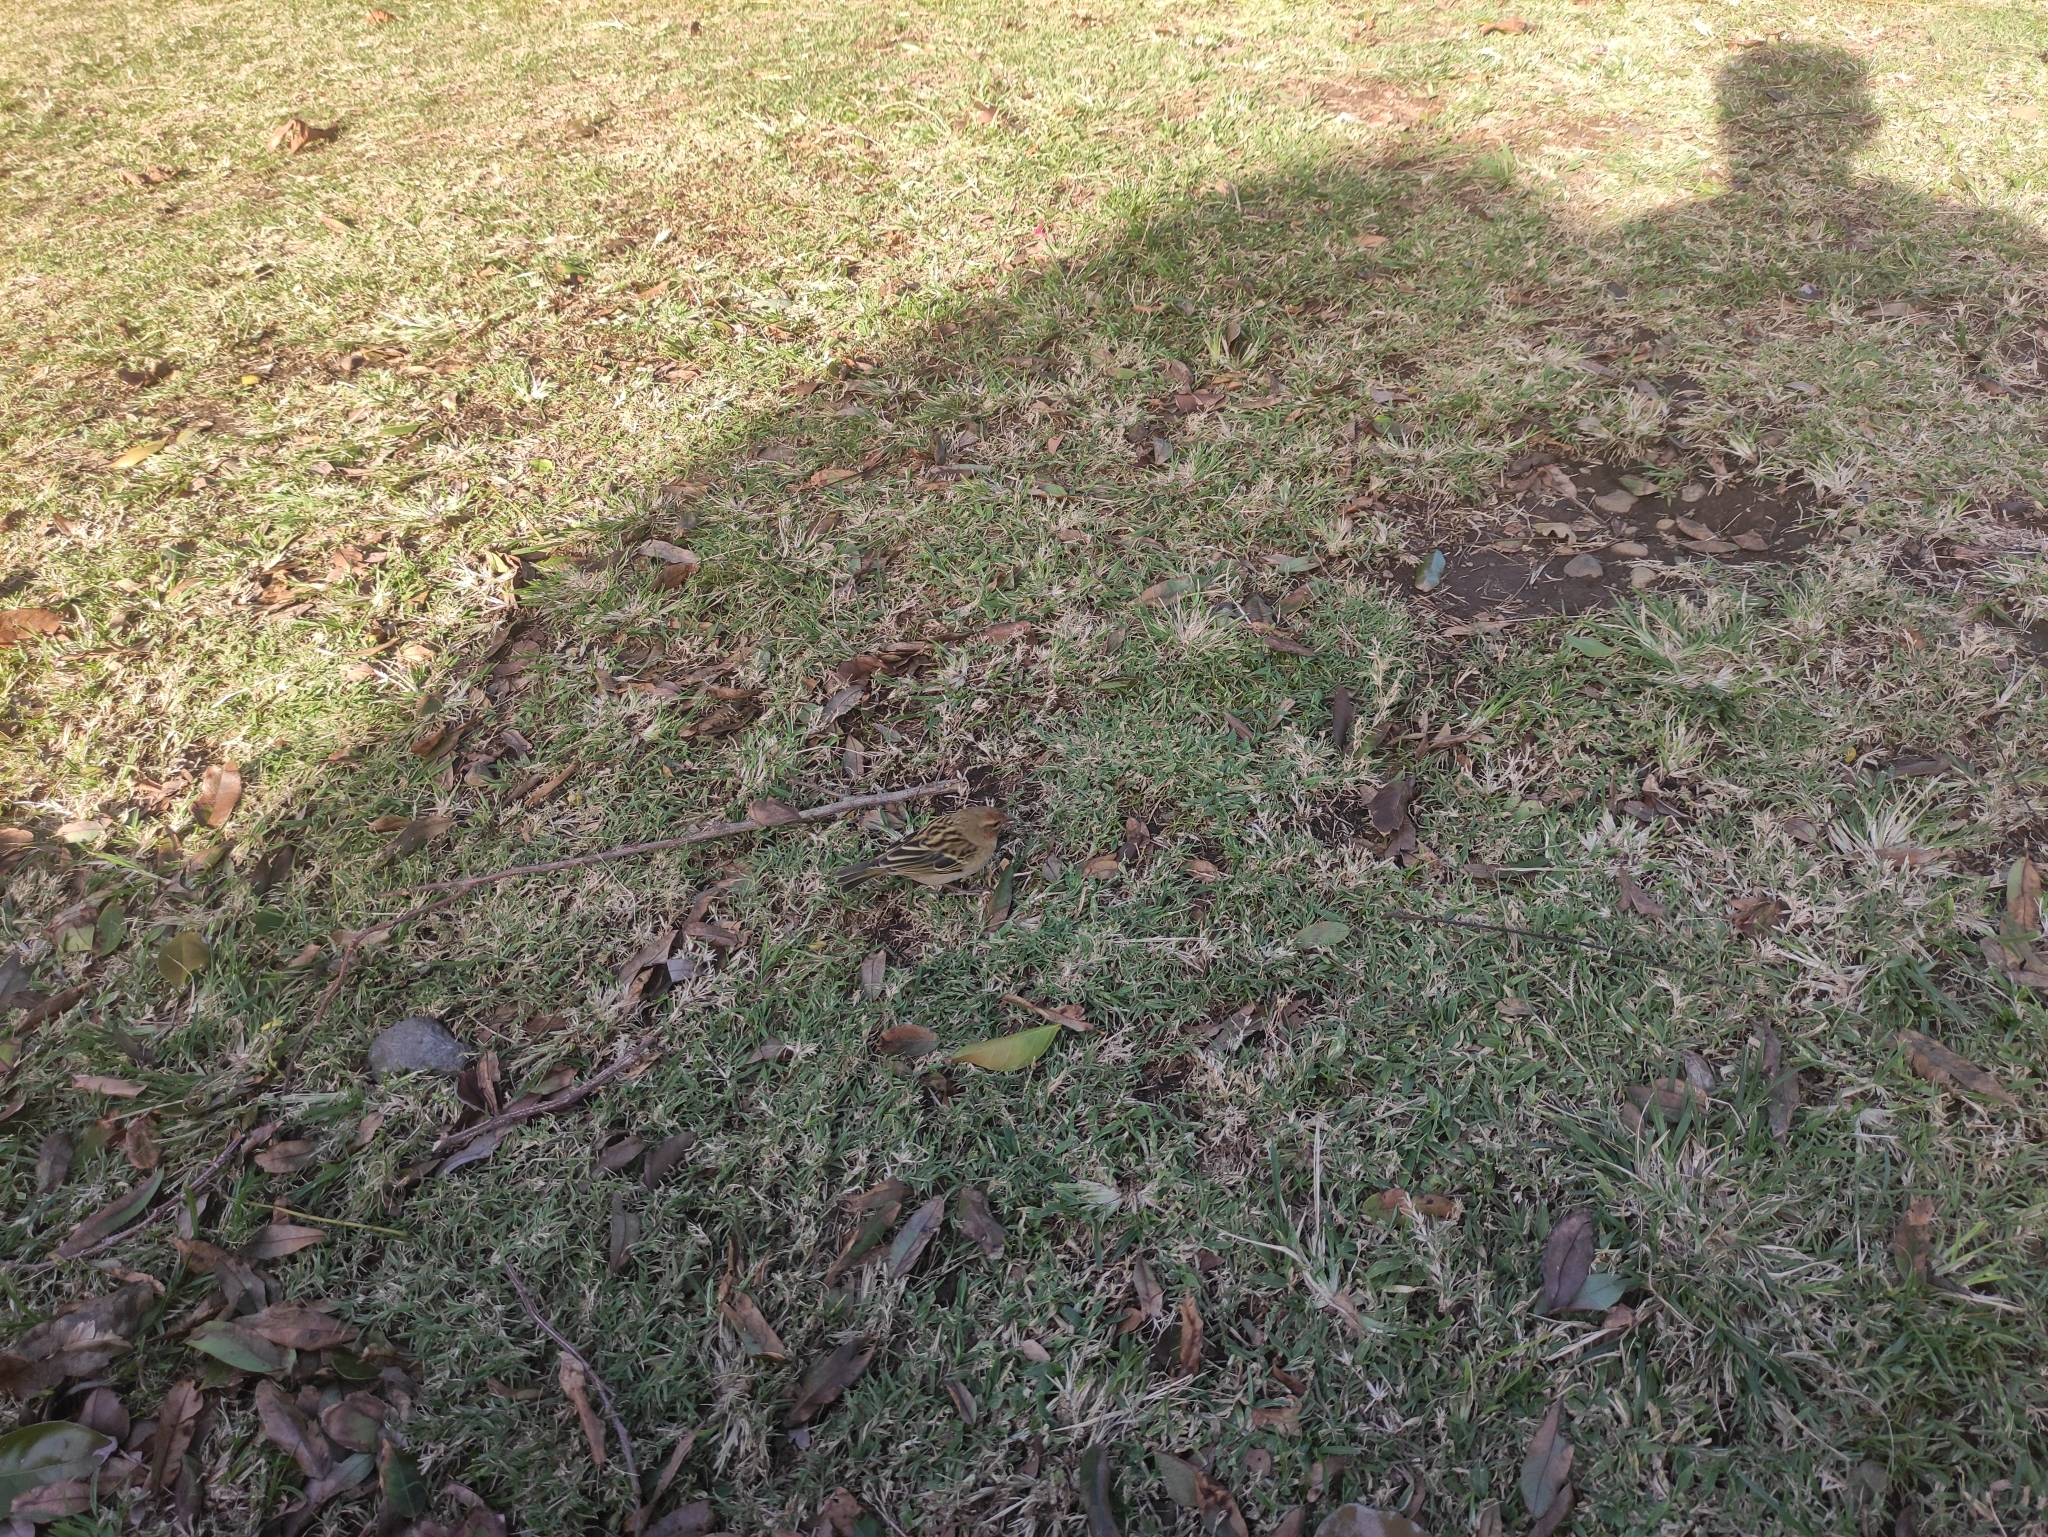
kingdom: Animalia
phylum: Chordata
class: Aves
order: Passeriformes
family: Ploceidae
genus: Foudia
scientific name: Foudia madagascariensis
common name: Red fody
